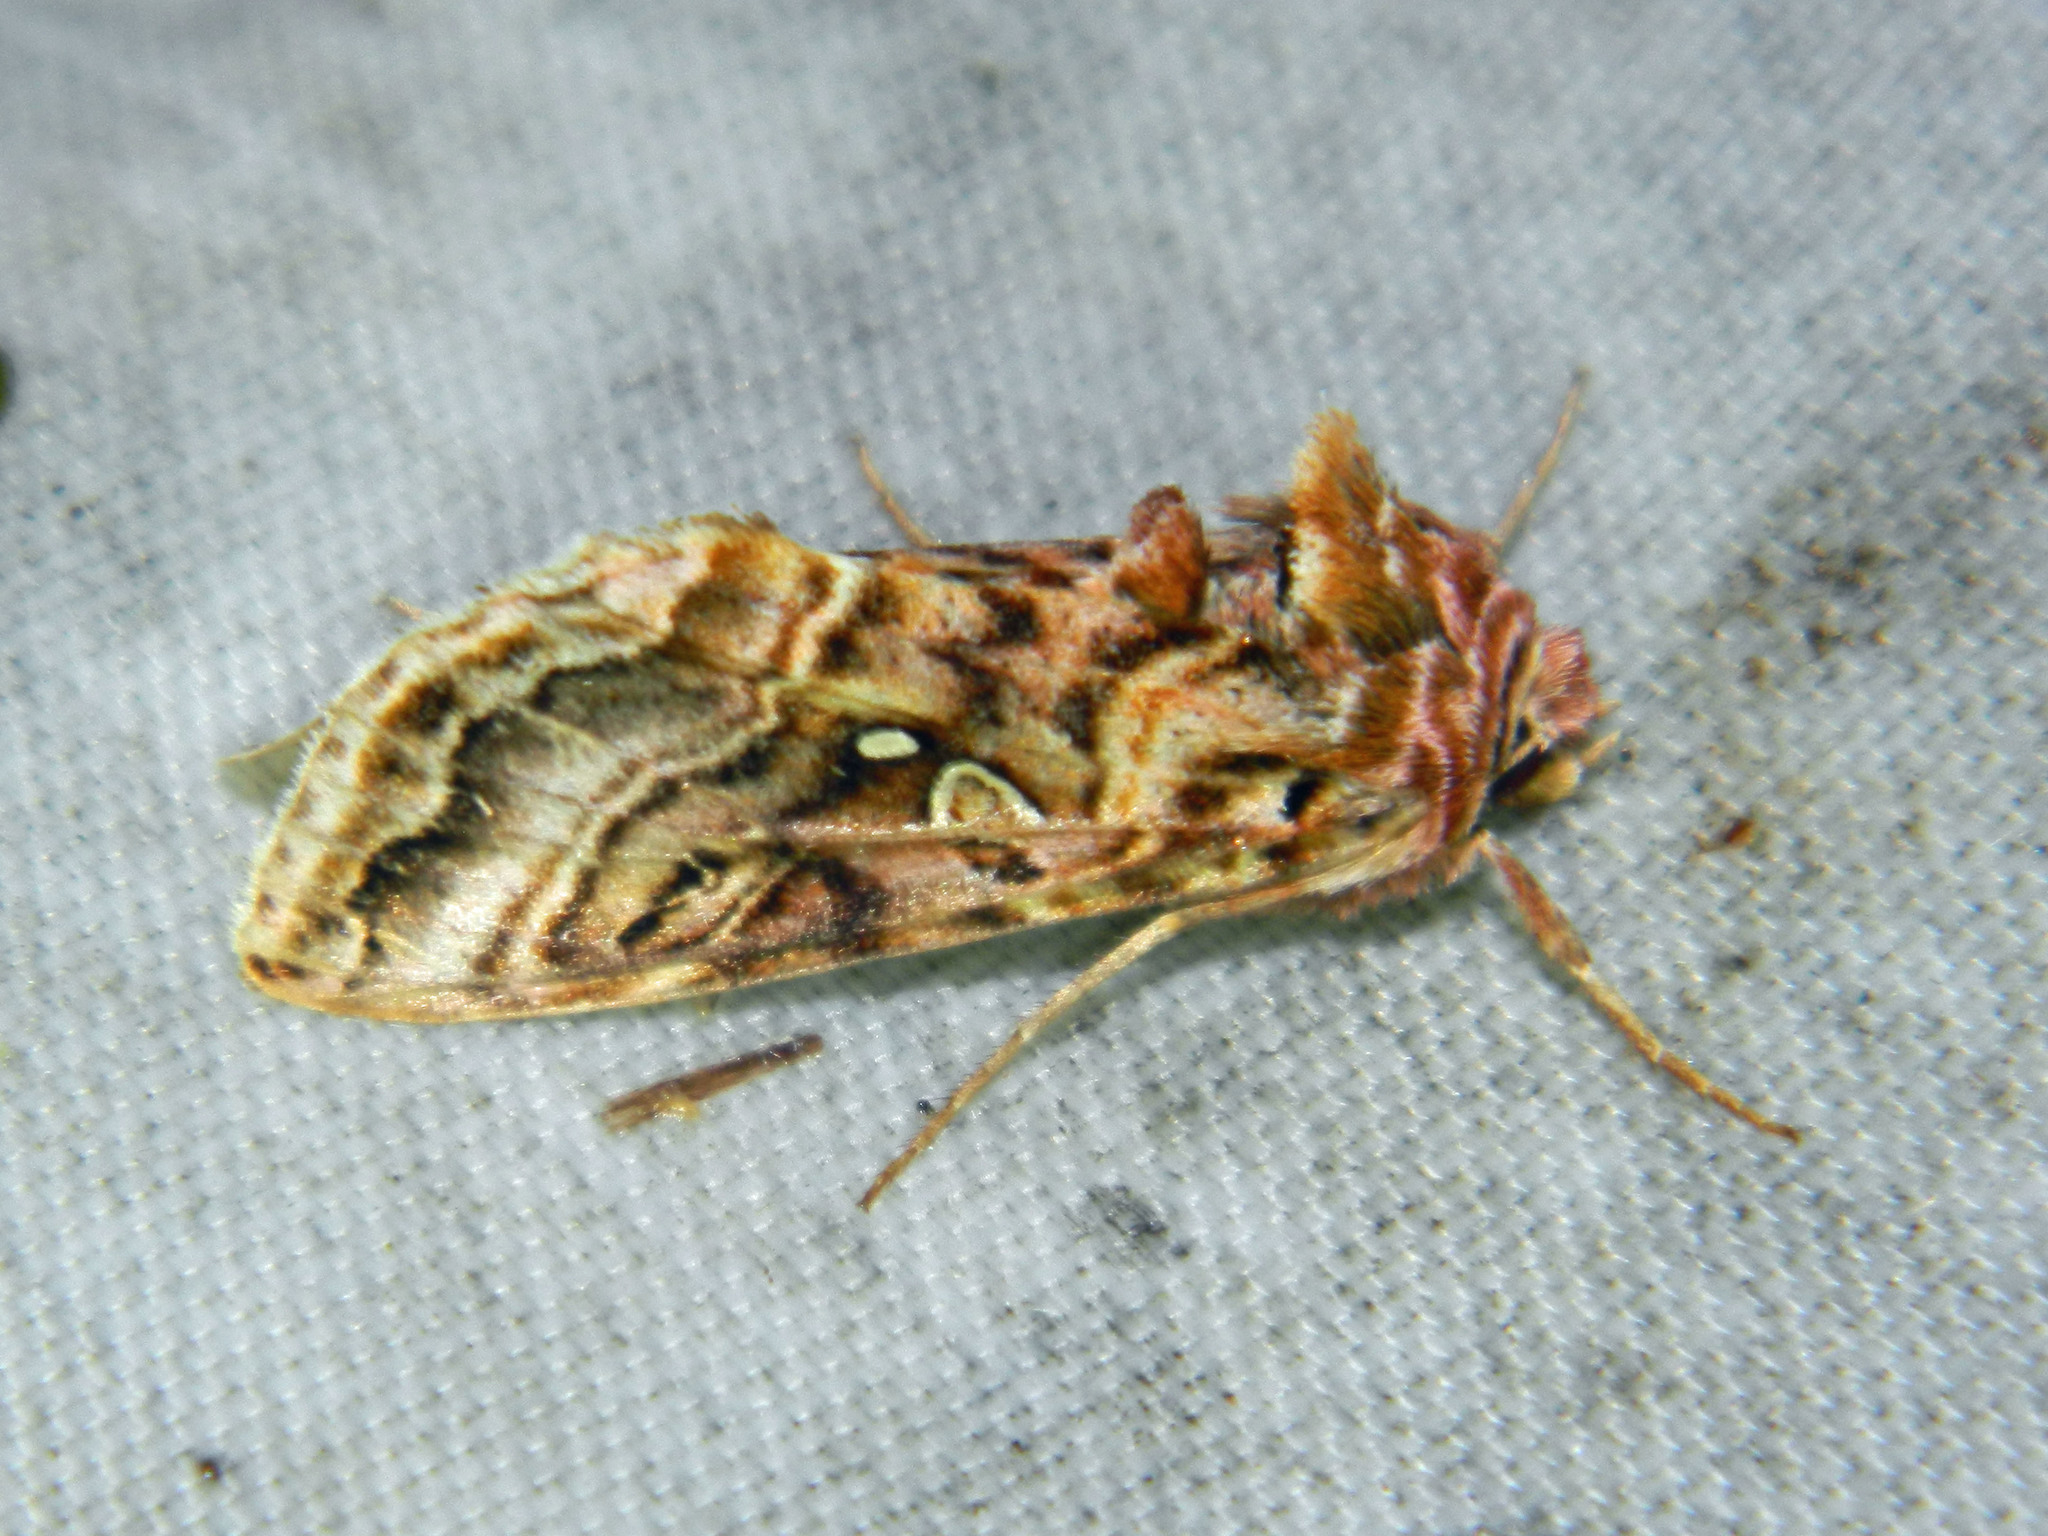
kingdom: Animalia
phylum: Arthropoda
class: Insecta
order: Lepidoptera
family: Noctuidae
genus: Autographa
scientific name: Autographa mappa
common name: Wavy chestnut y moth
